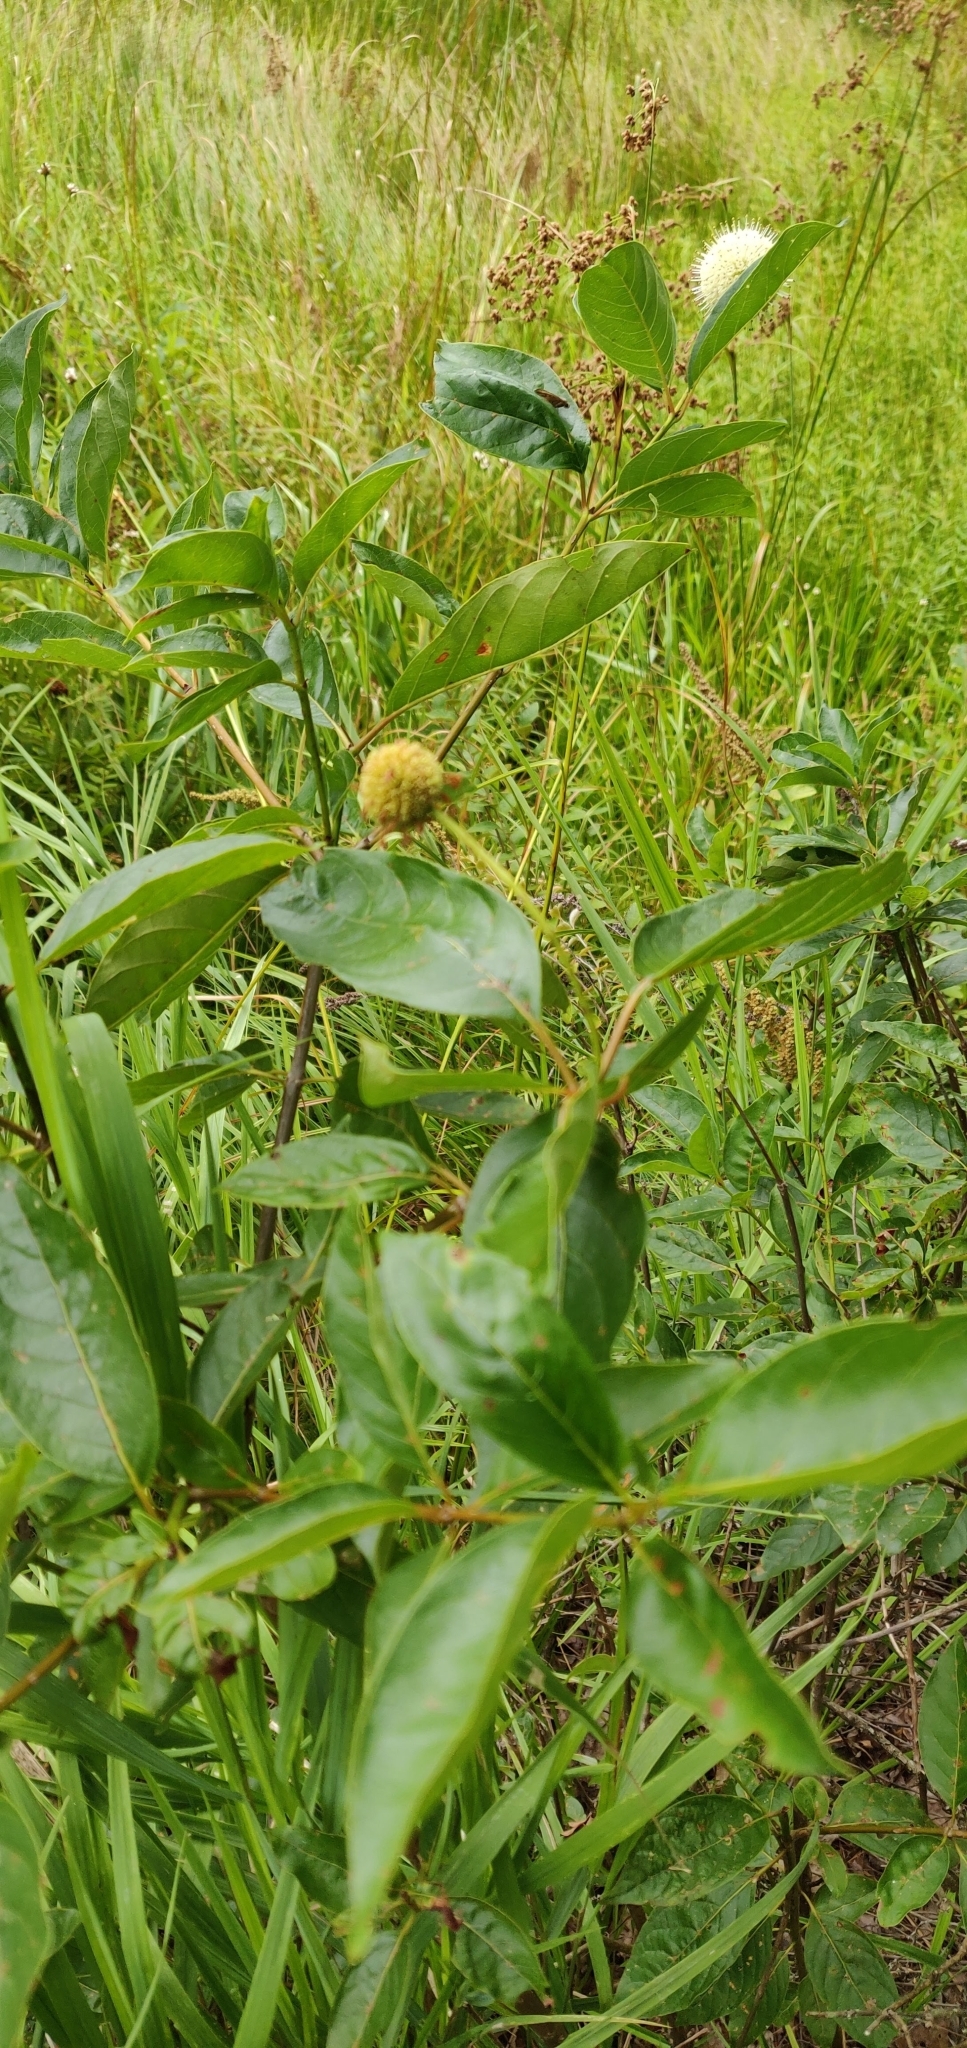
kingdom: Plantae
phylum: Tracheophyta
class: Magnoliopsida
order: Gentianales
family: Rubiaceae
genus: Cephalanthus
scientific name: Cephalanthus occidentalis
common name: Button-willow
